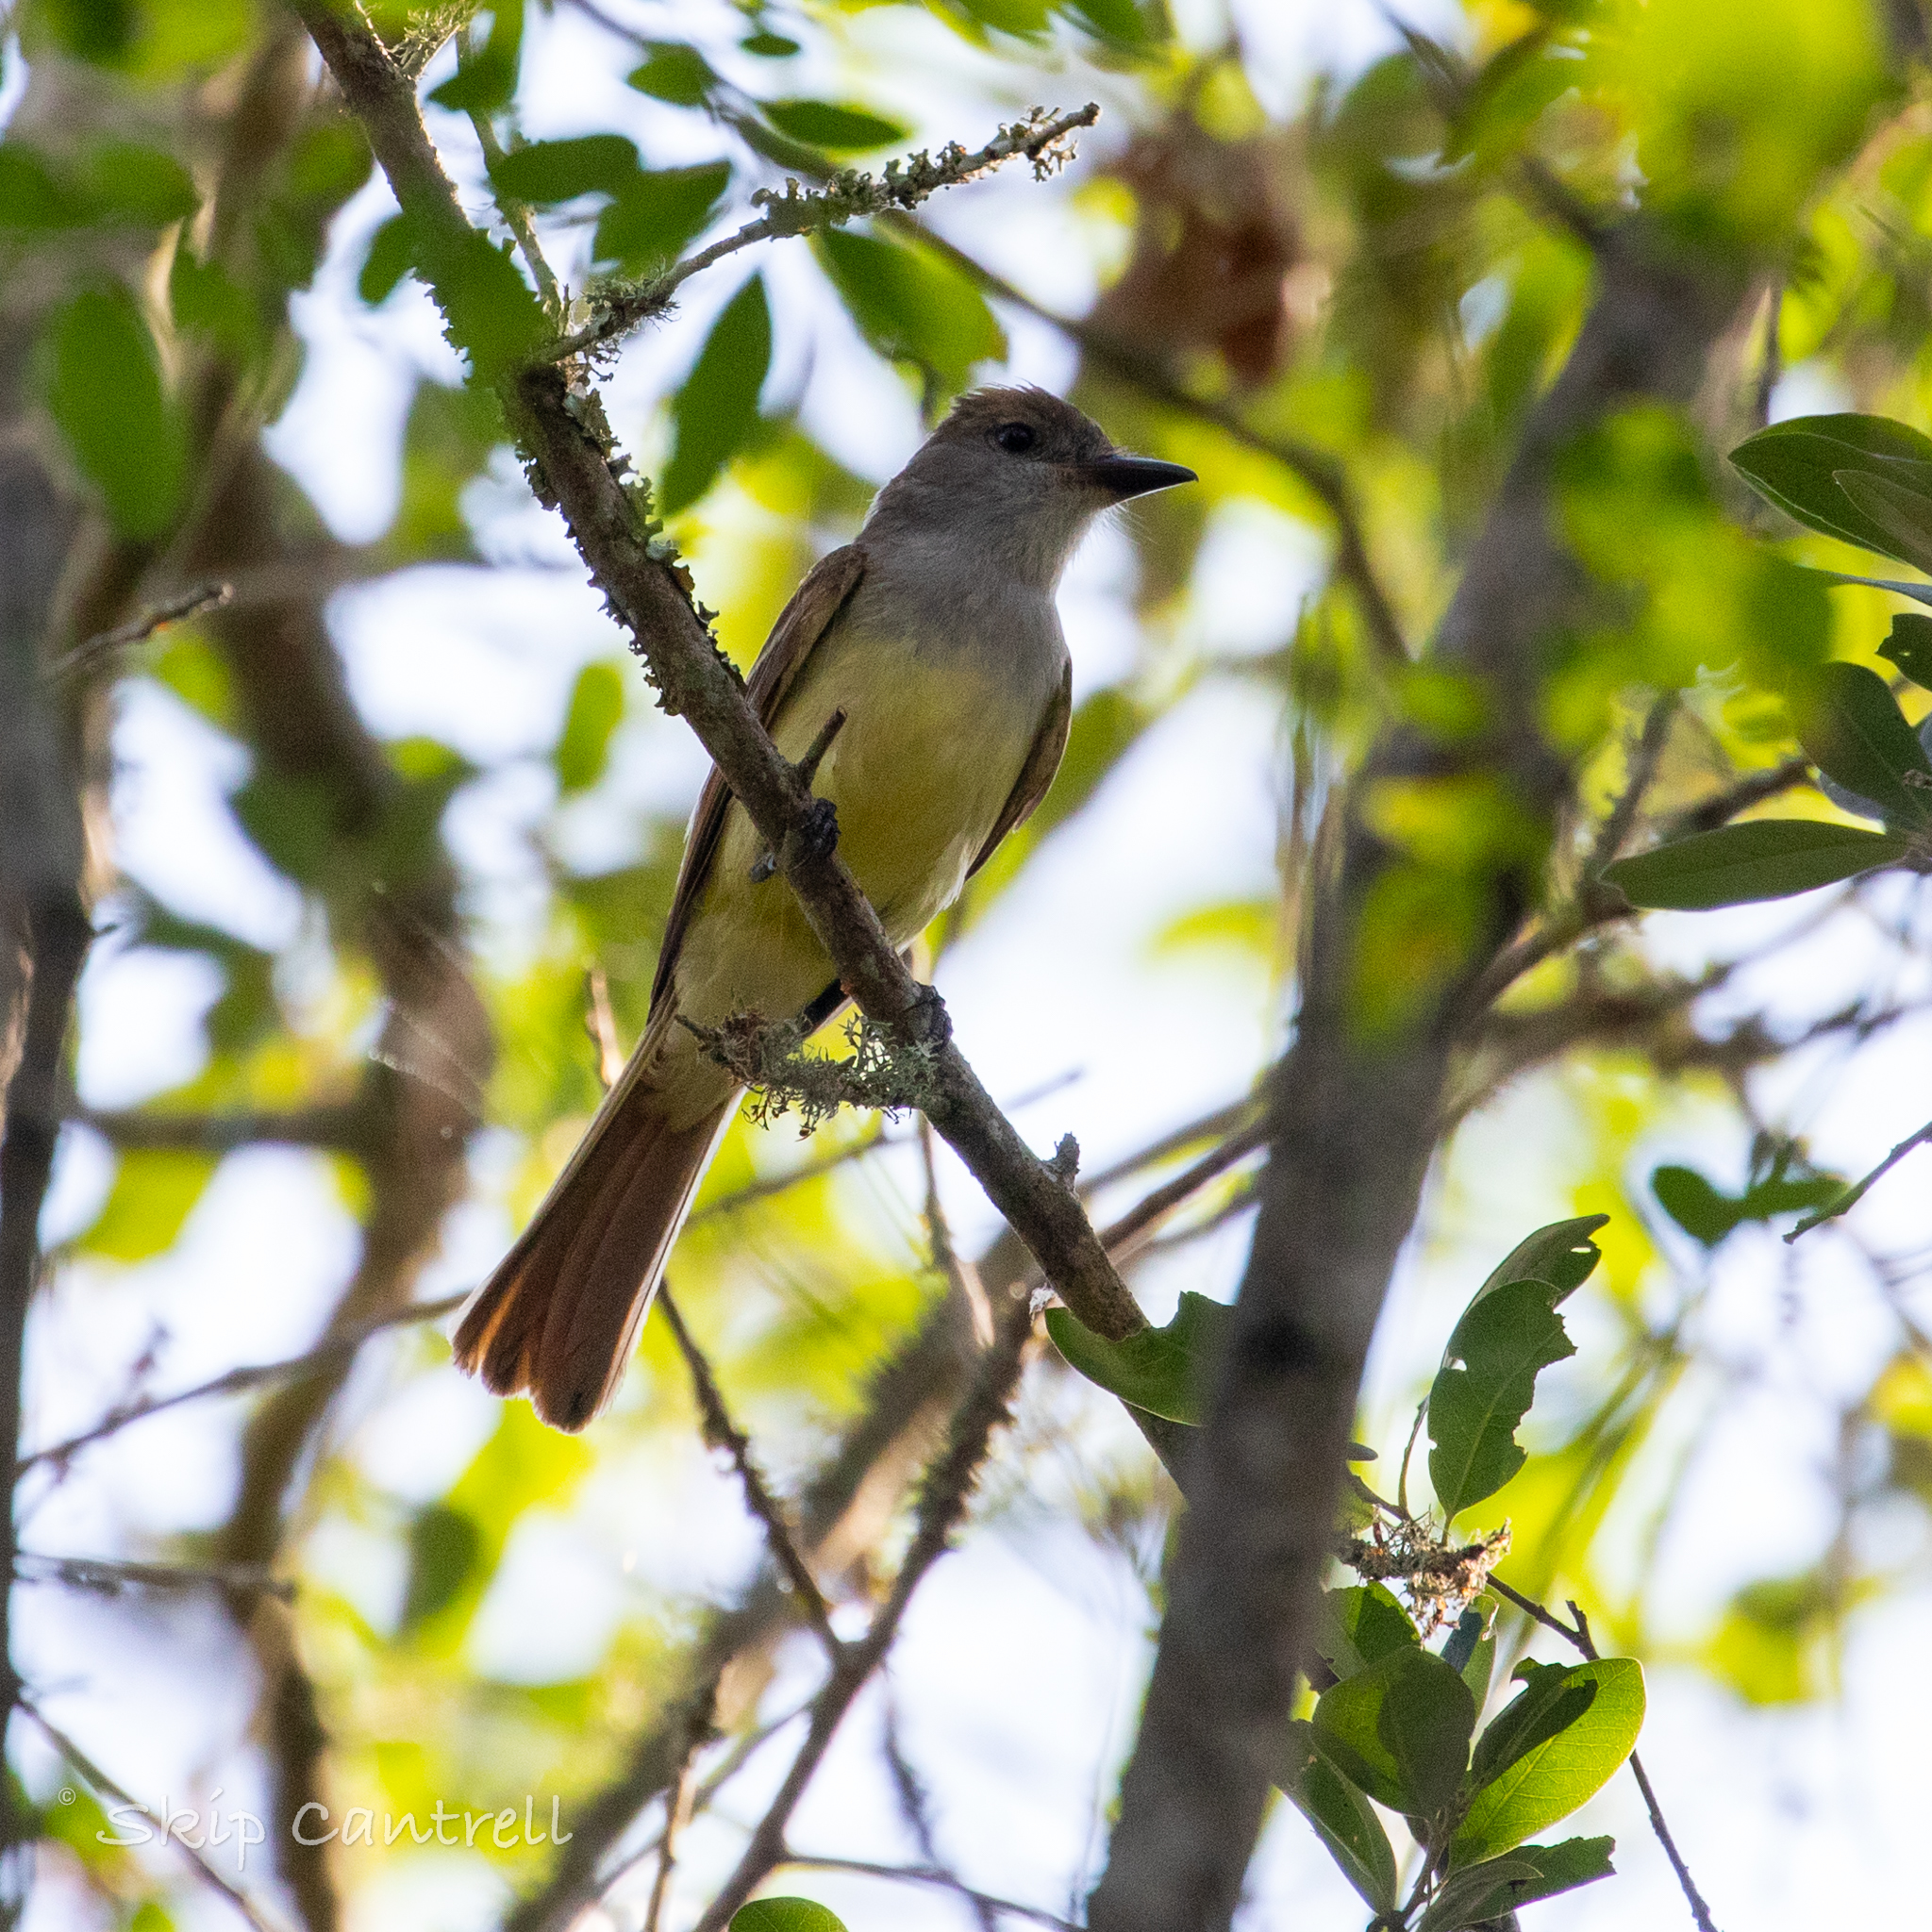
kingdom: Animalia
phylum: Chordata
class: Aves
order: Passeriformes
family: Tyrannidae
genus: Myiarchus
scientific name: Myiarchus tyrannulus
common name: Brown-crested flycatcher
